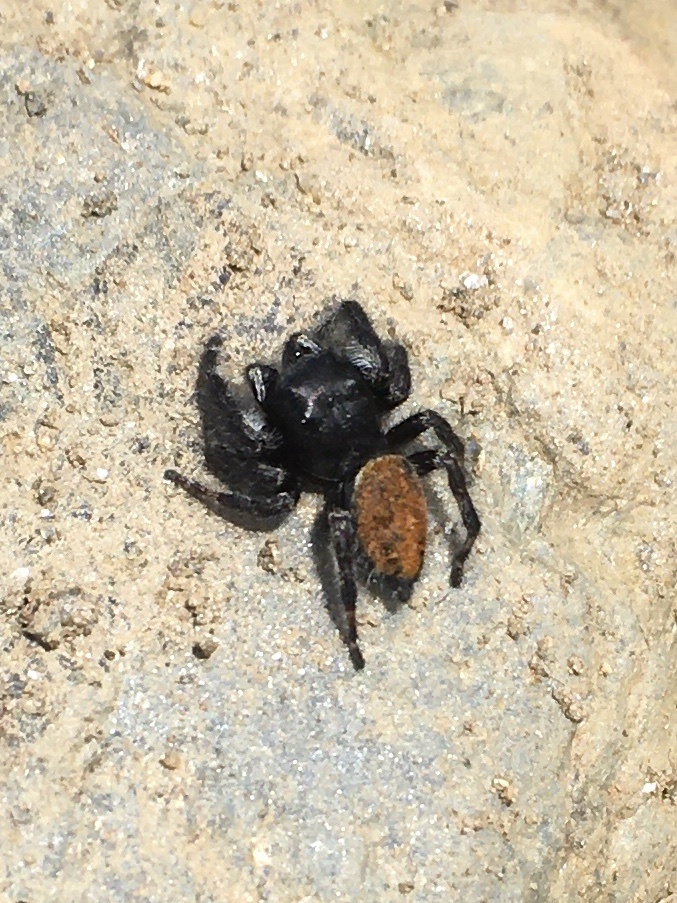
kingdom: Animalia
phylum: Arthropoda
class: Arachnida
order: Araneae
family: Salticidae
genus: Phidippus
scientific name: Phidippus princeps
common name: Grayish jumping spider
